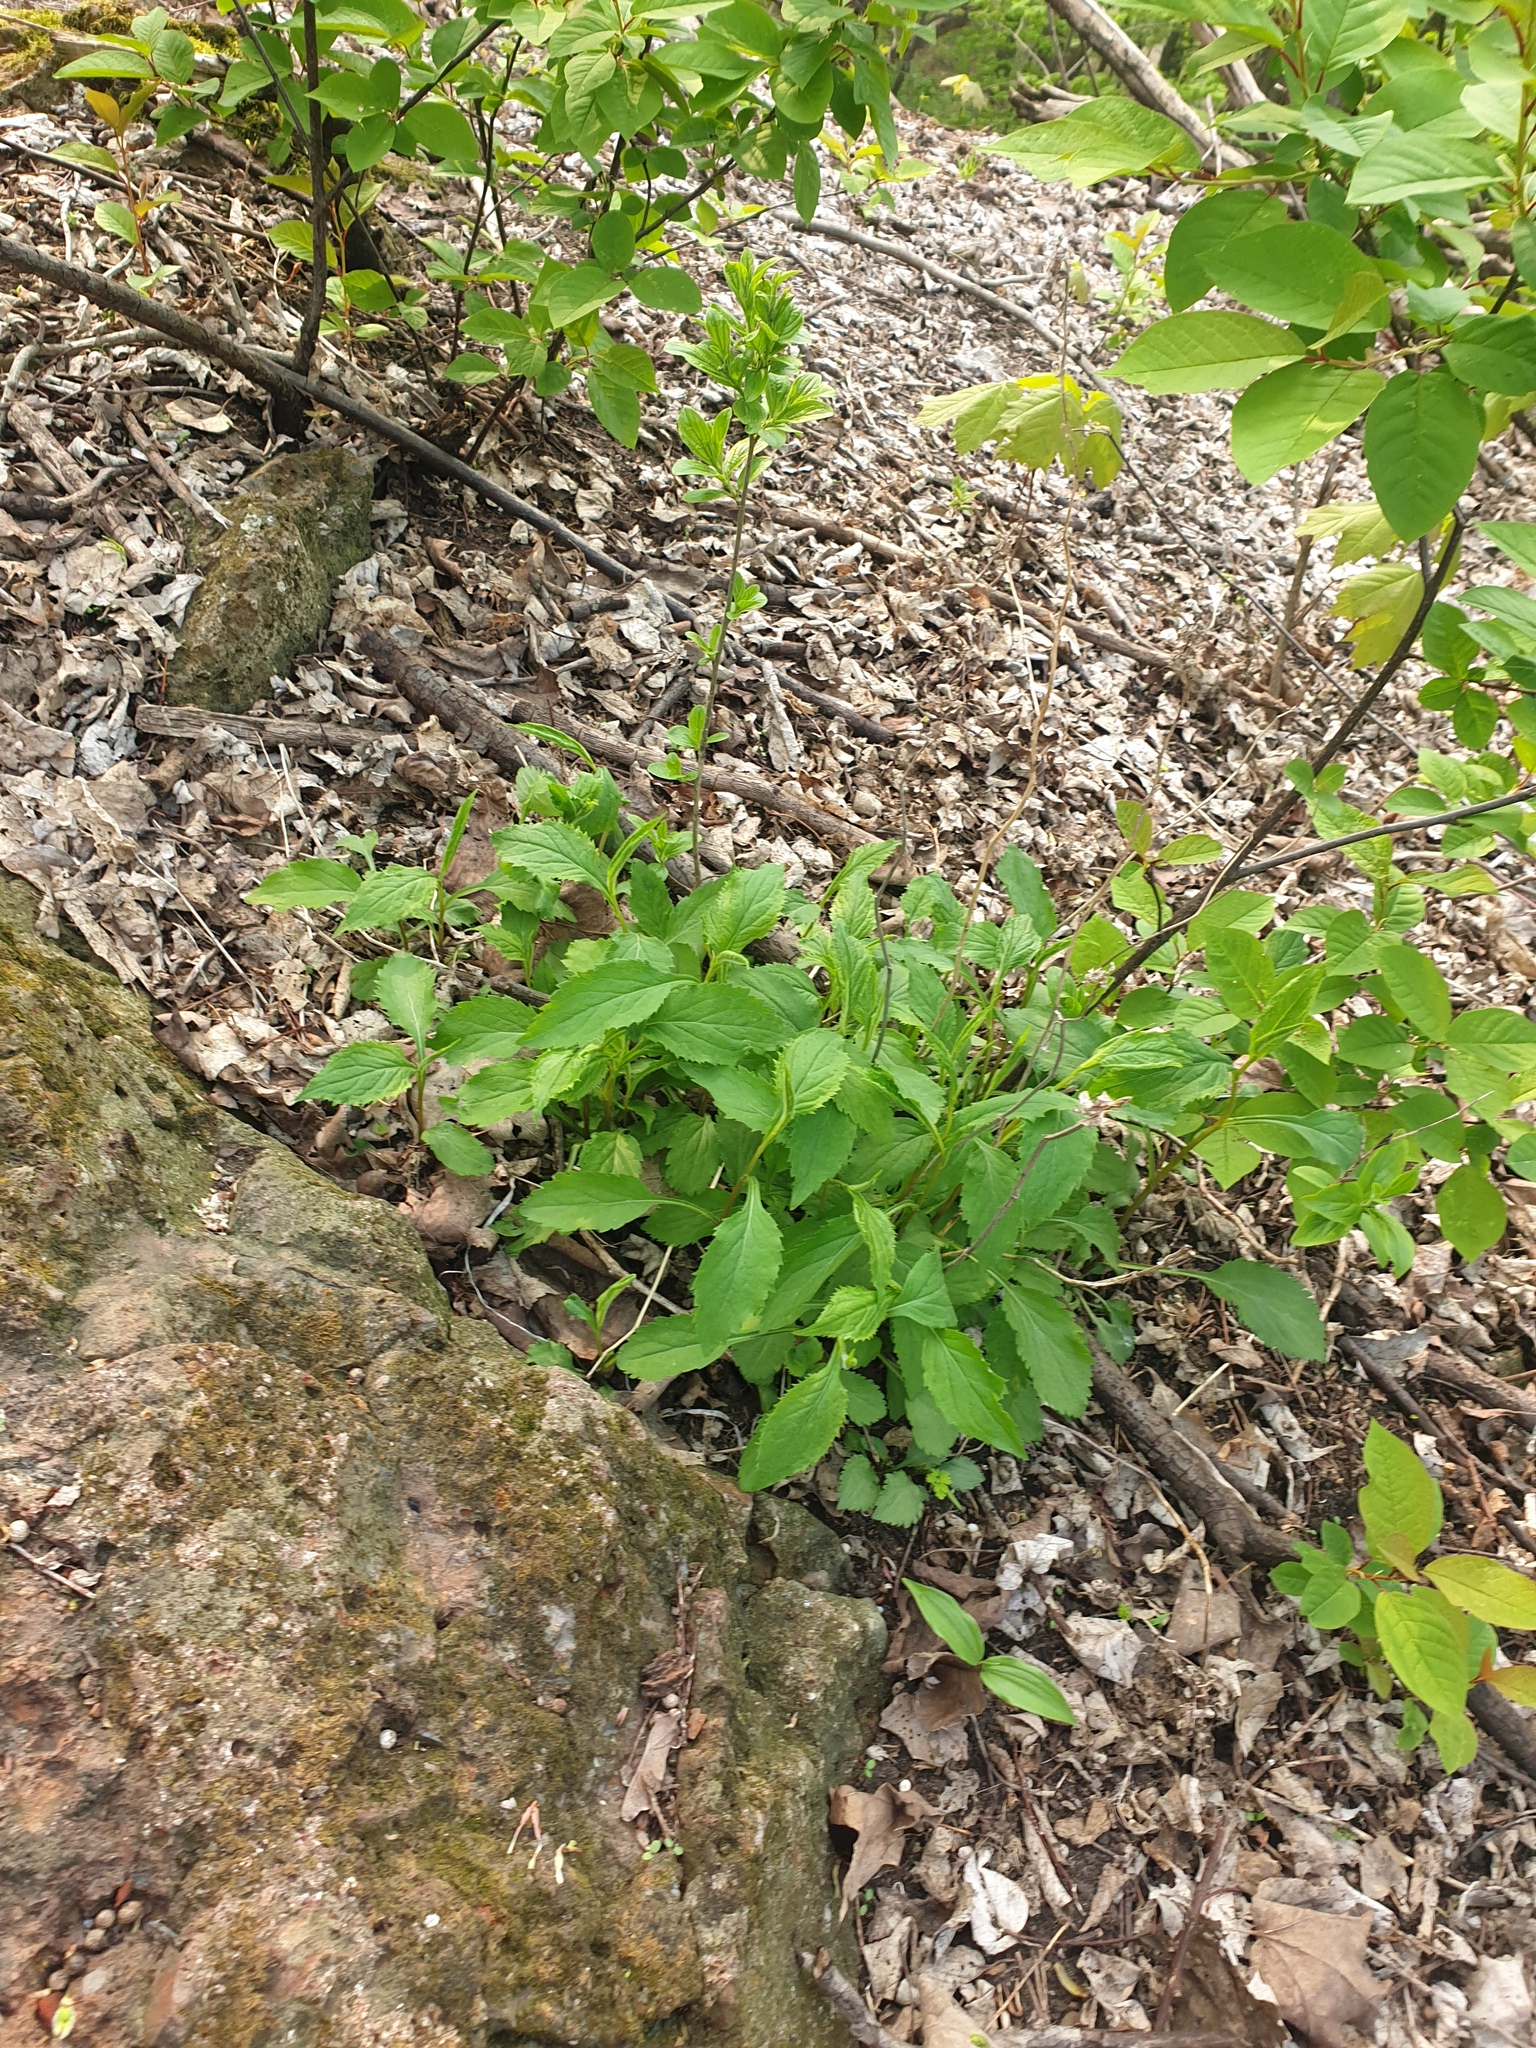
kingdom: Plantae
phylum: Tracheophyta
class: Magnoliopsida
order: Asterales
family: Asteraceae
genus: Solidago
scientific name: Solidago flexicaulis
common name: Zig-zag goldenrod
